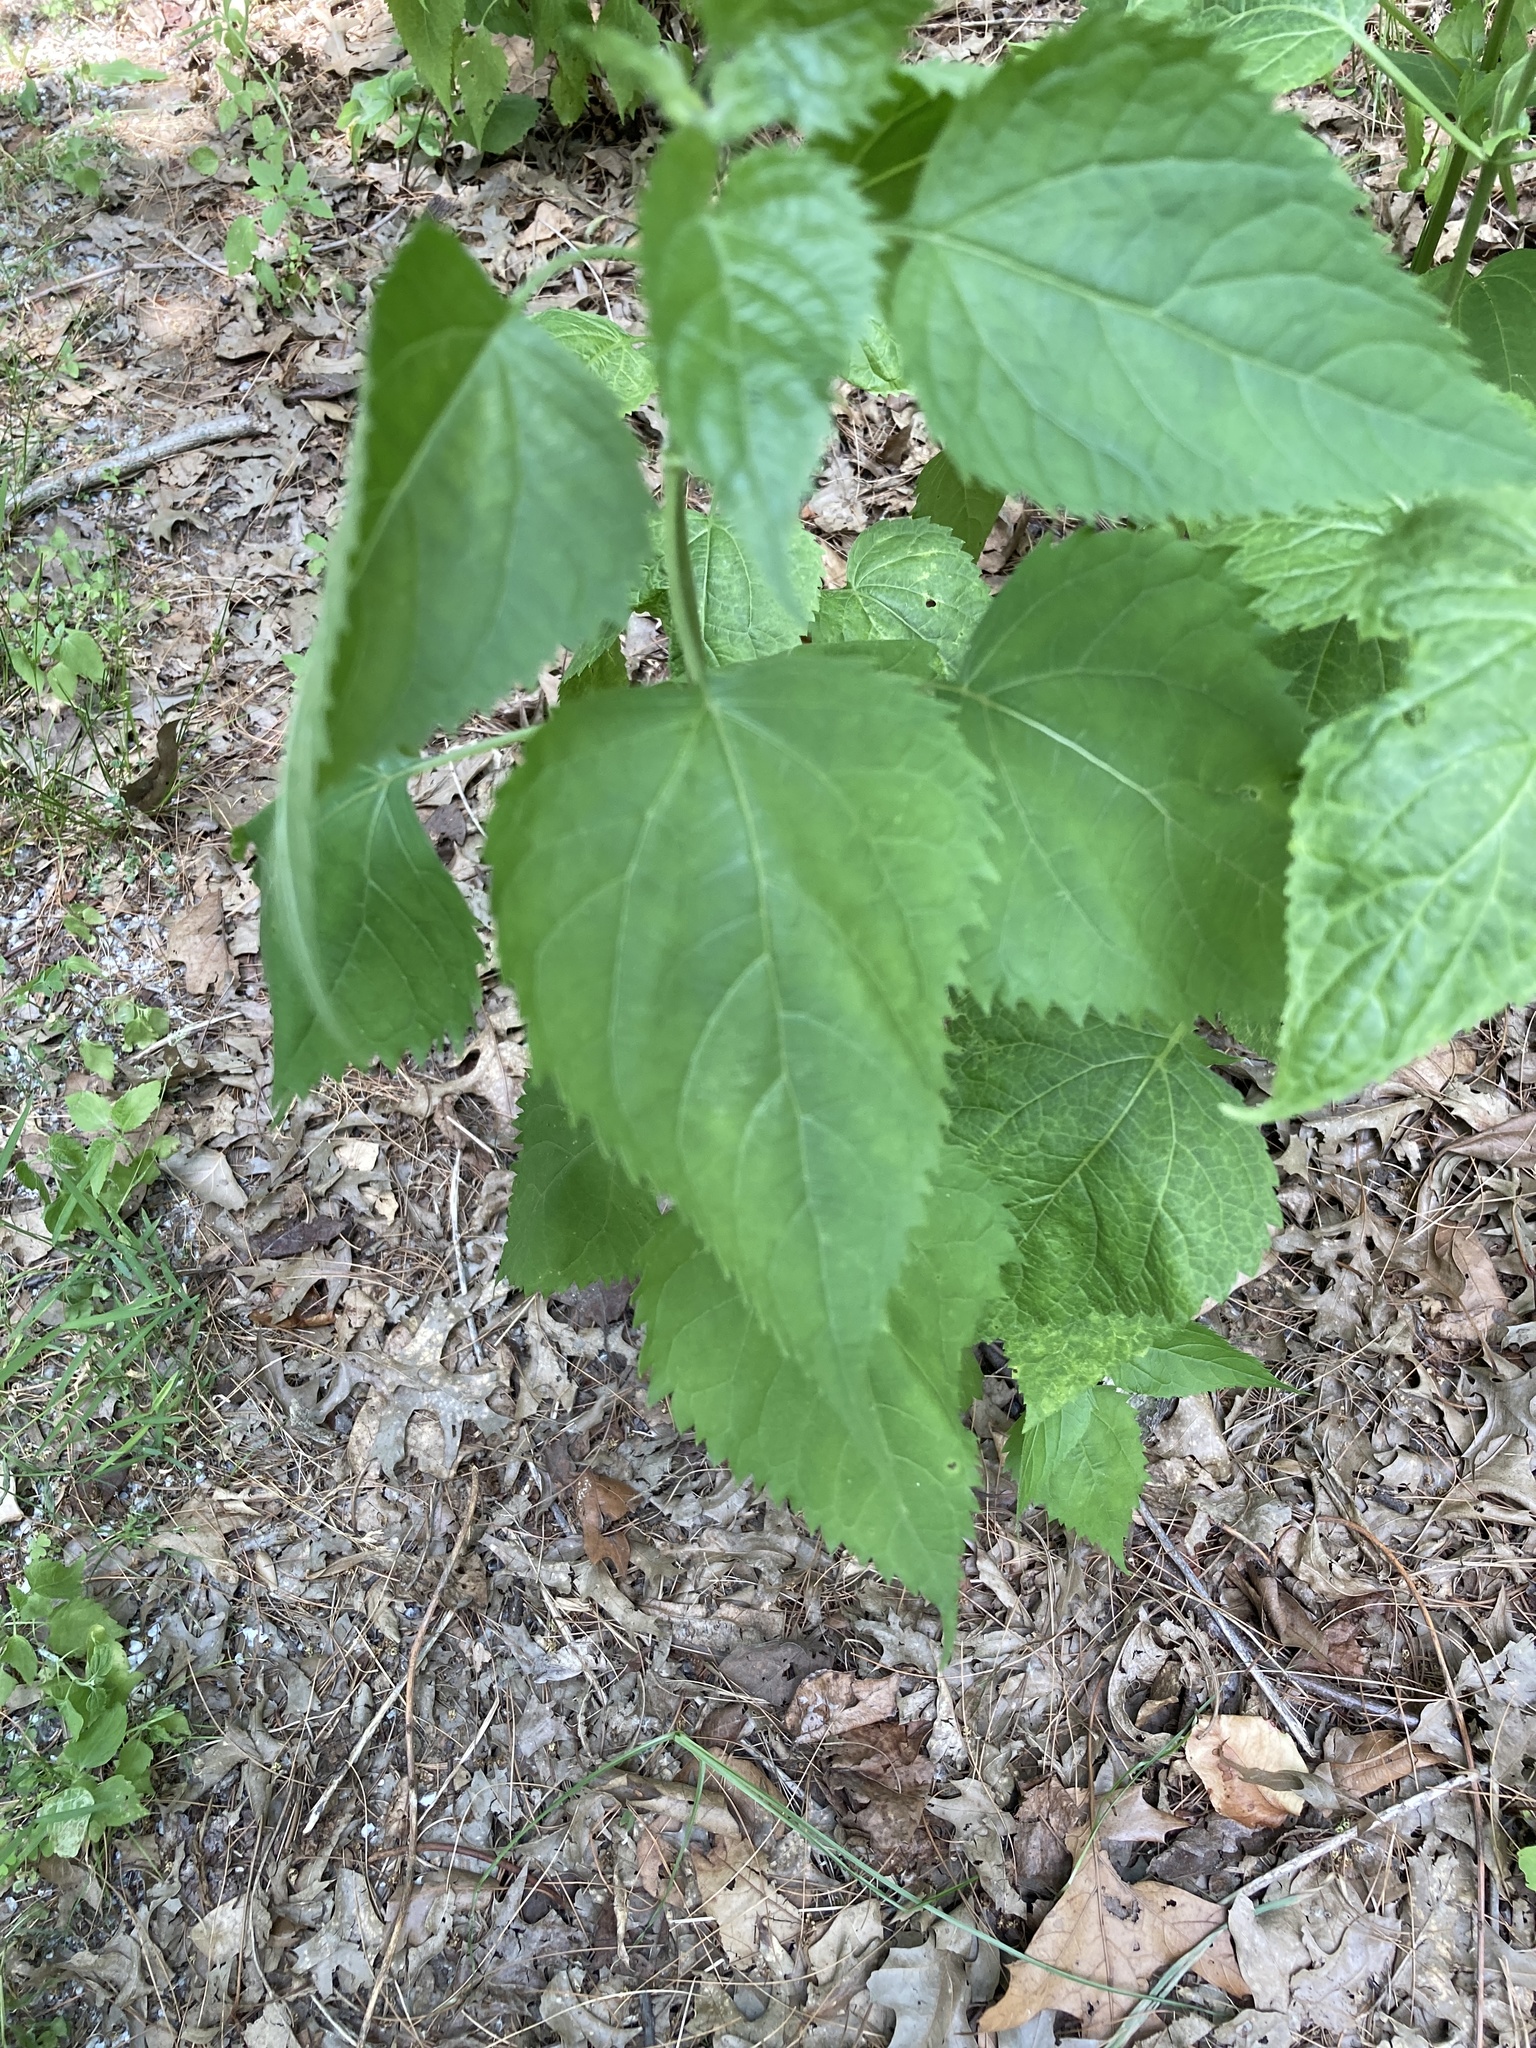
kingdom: Plantae
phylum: Tracheophyta
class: Magnoliopsida
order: Asterales
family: Asteraceae
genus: Ageratina
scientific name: Ageratina altissima
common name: White snakeroot
